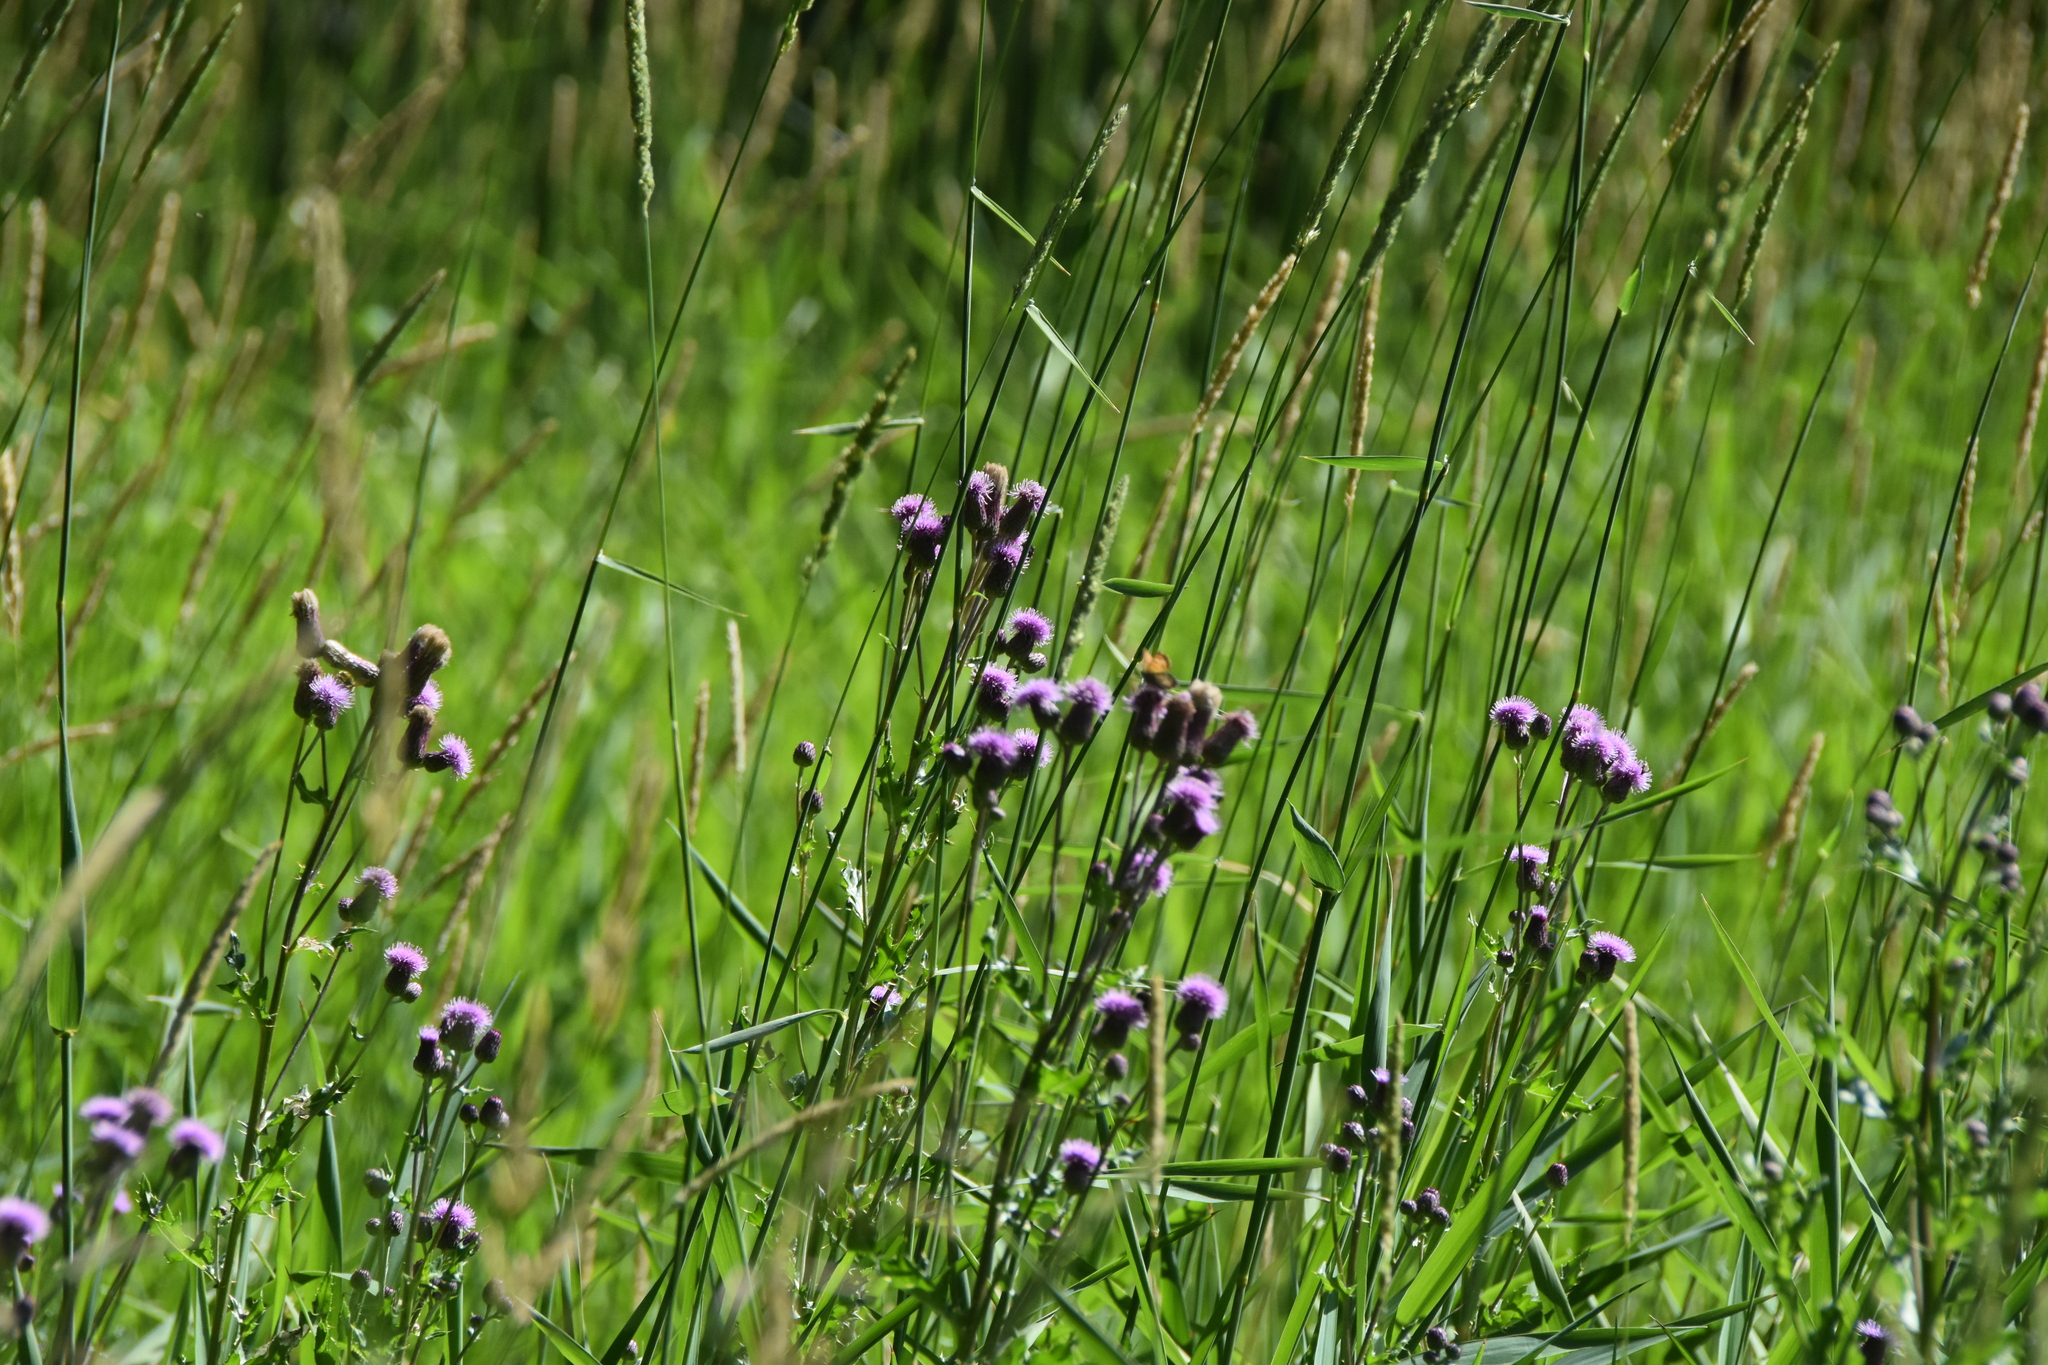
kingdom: Plantae
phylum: Tracheophyta
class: Magnoliopsida
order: Asterales
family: Asteraceae
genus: Cirsium
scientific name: Cirsium arvense
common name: Creeping thistle
